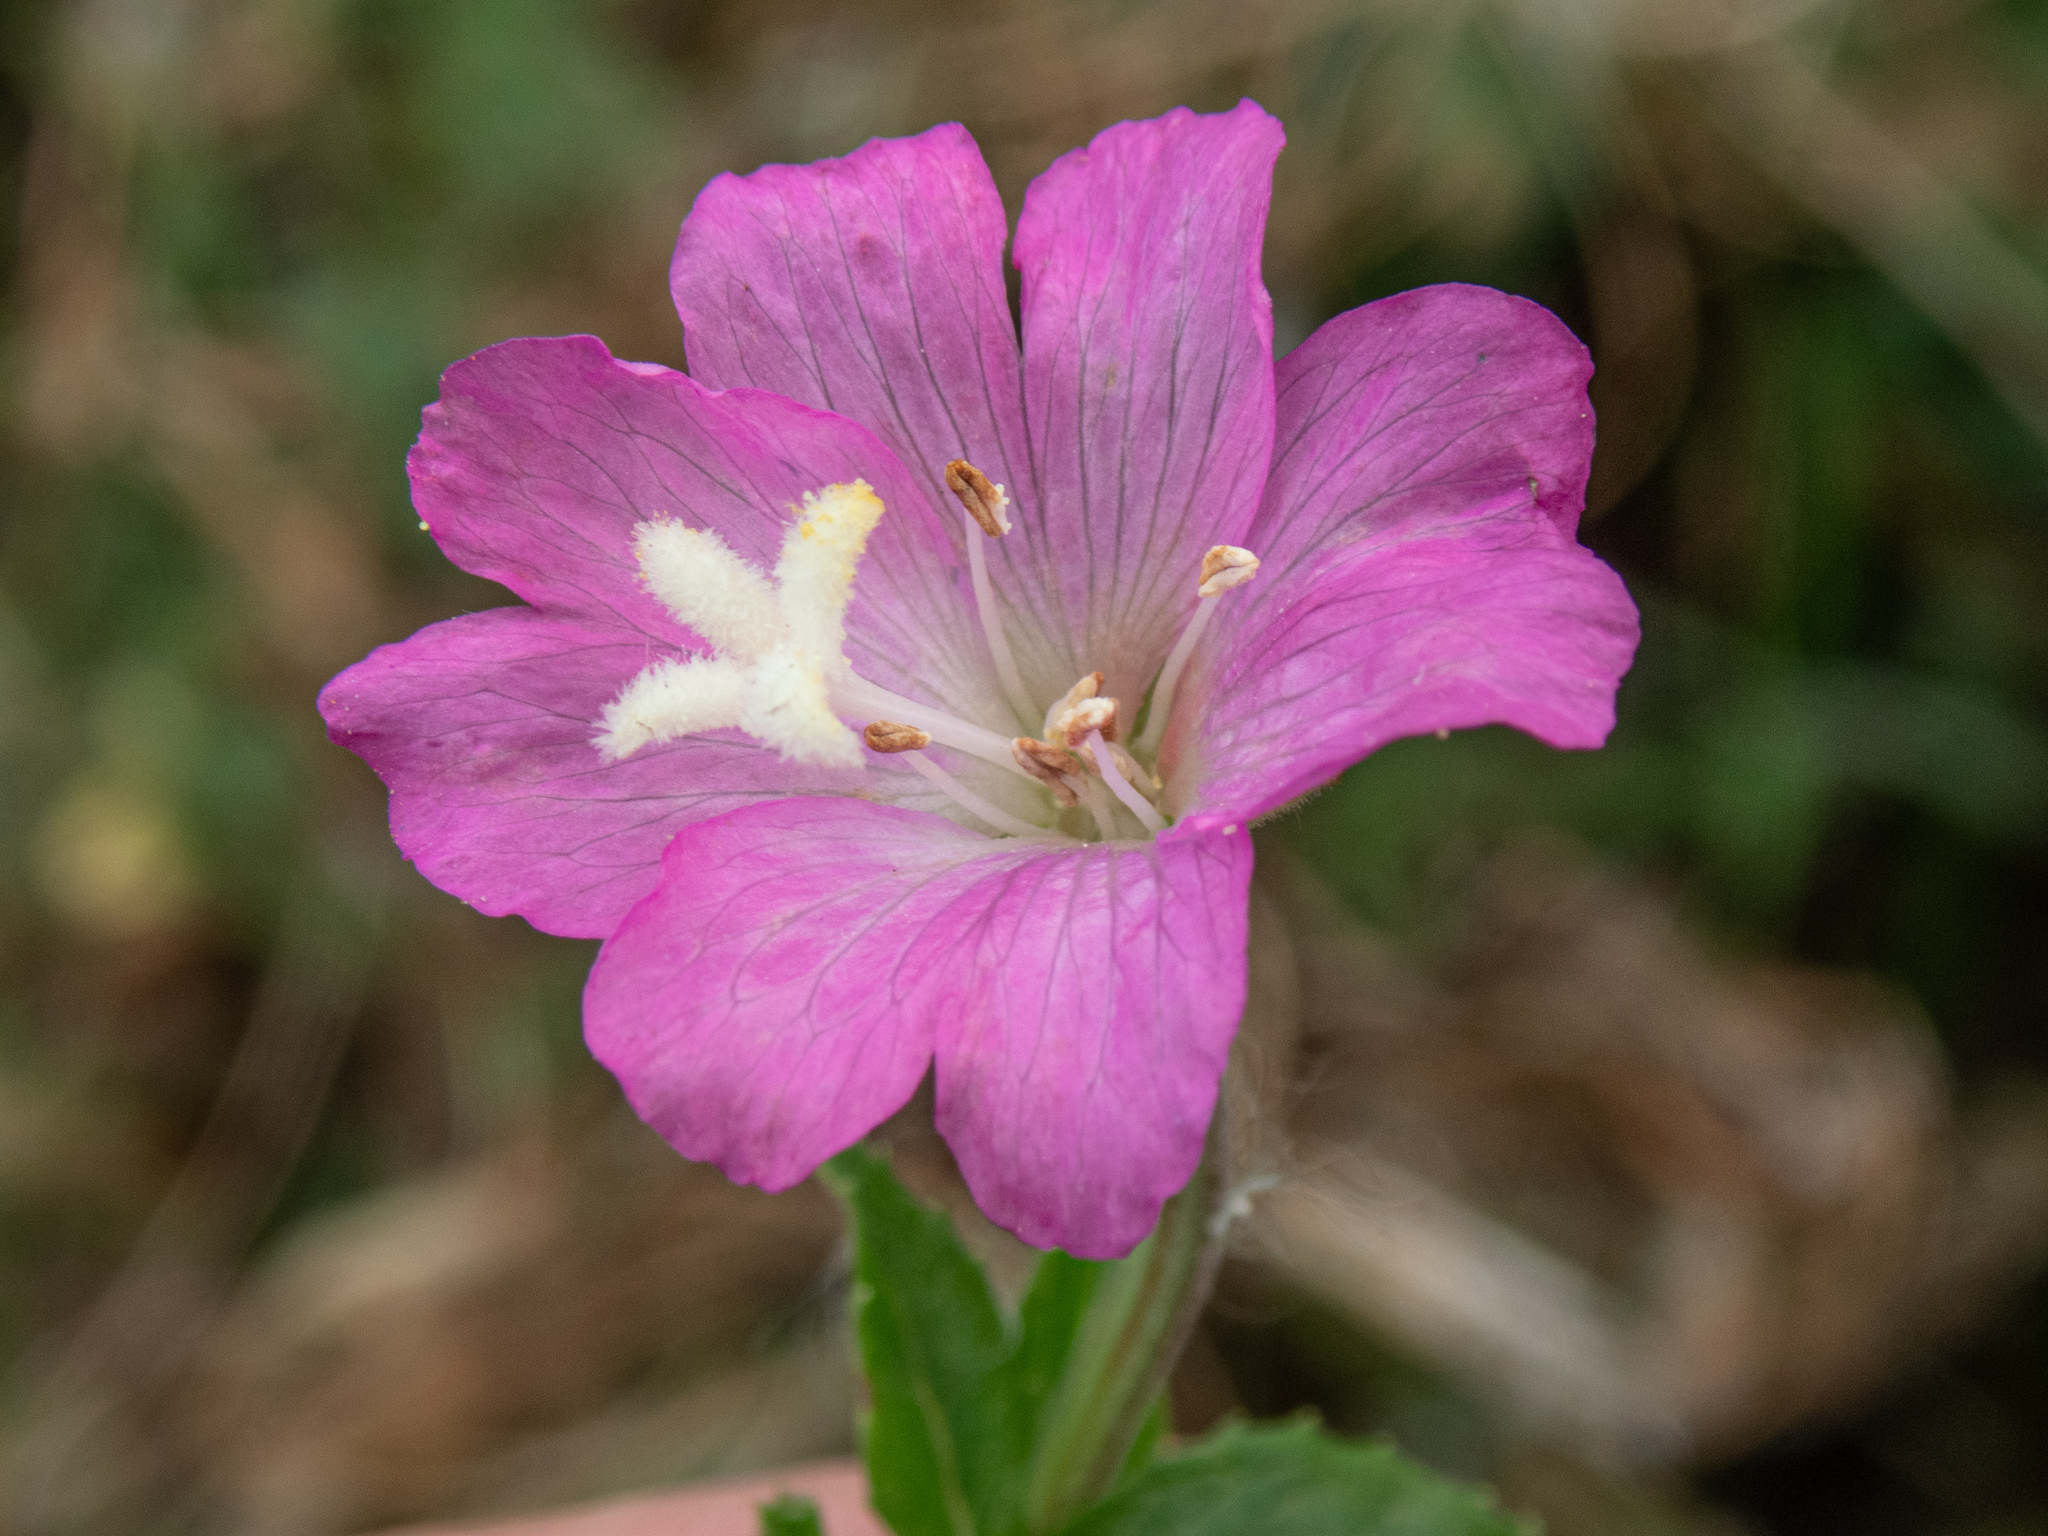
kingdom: Plantae
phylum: Tracheophyta
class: Magnoliopsida
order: Myrtales
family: Onagraceae
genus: Epilobium
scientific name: Epilobium hirsutum
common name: Great willowherb
